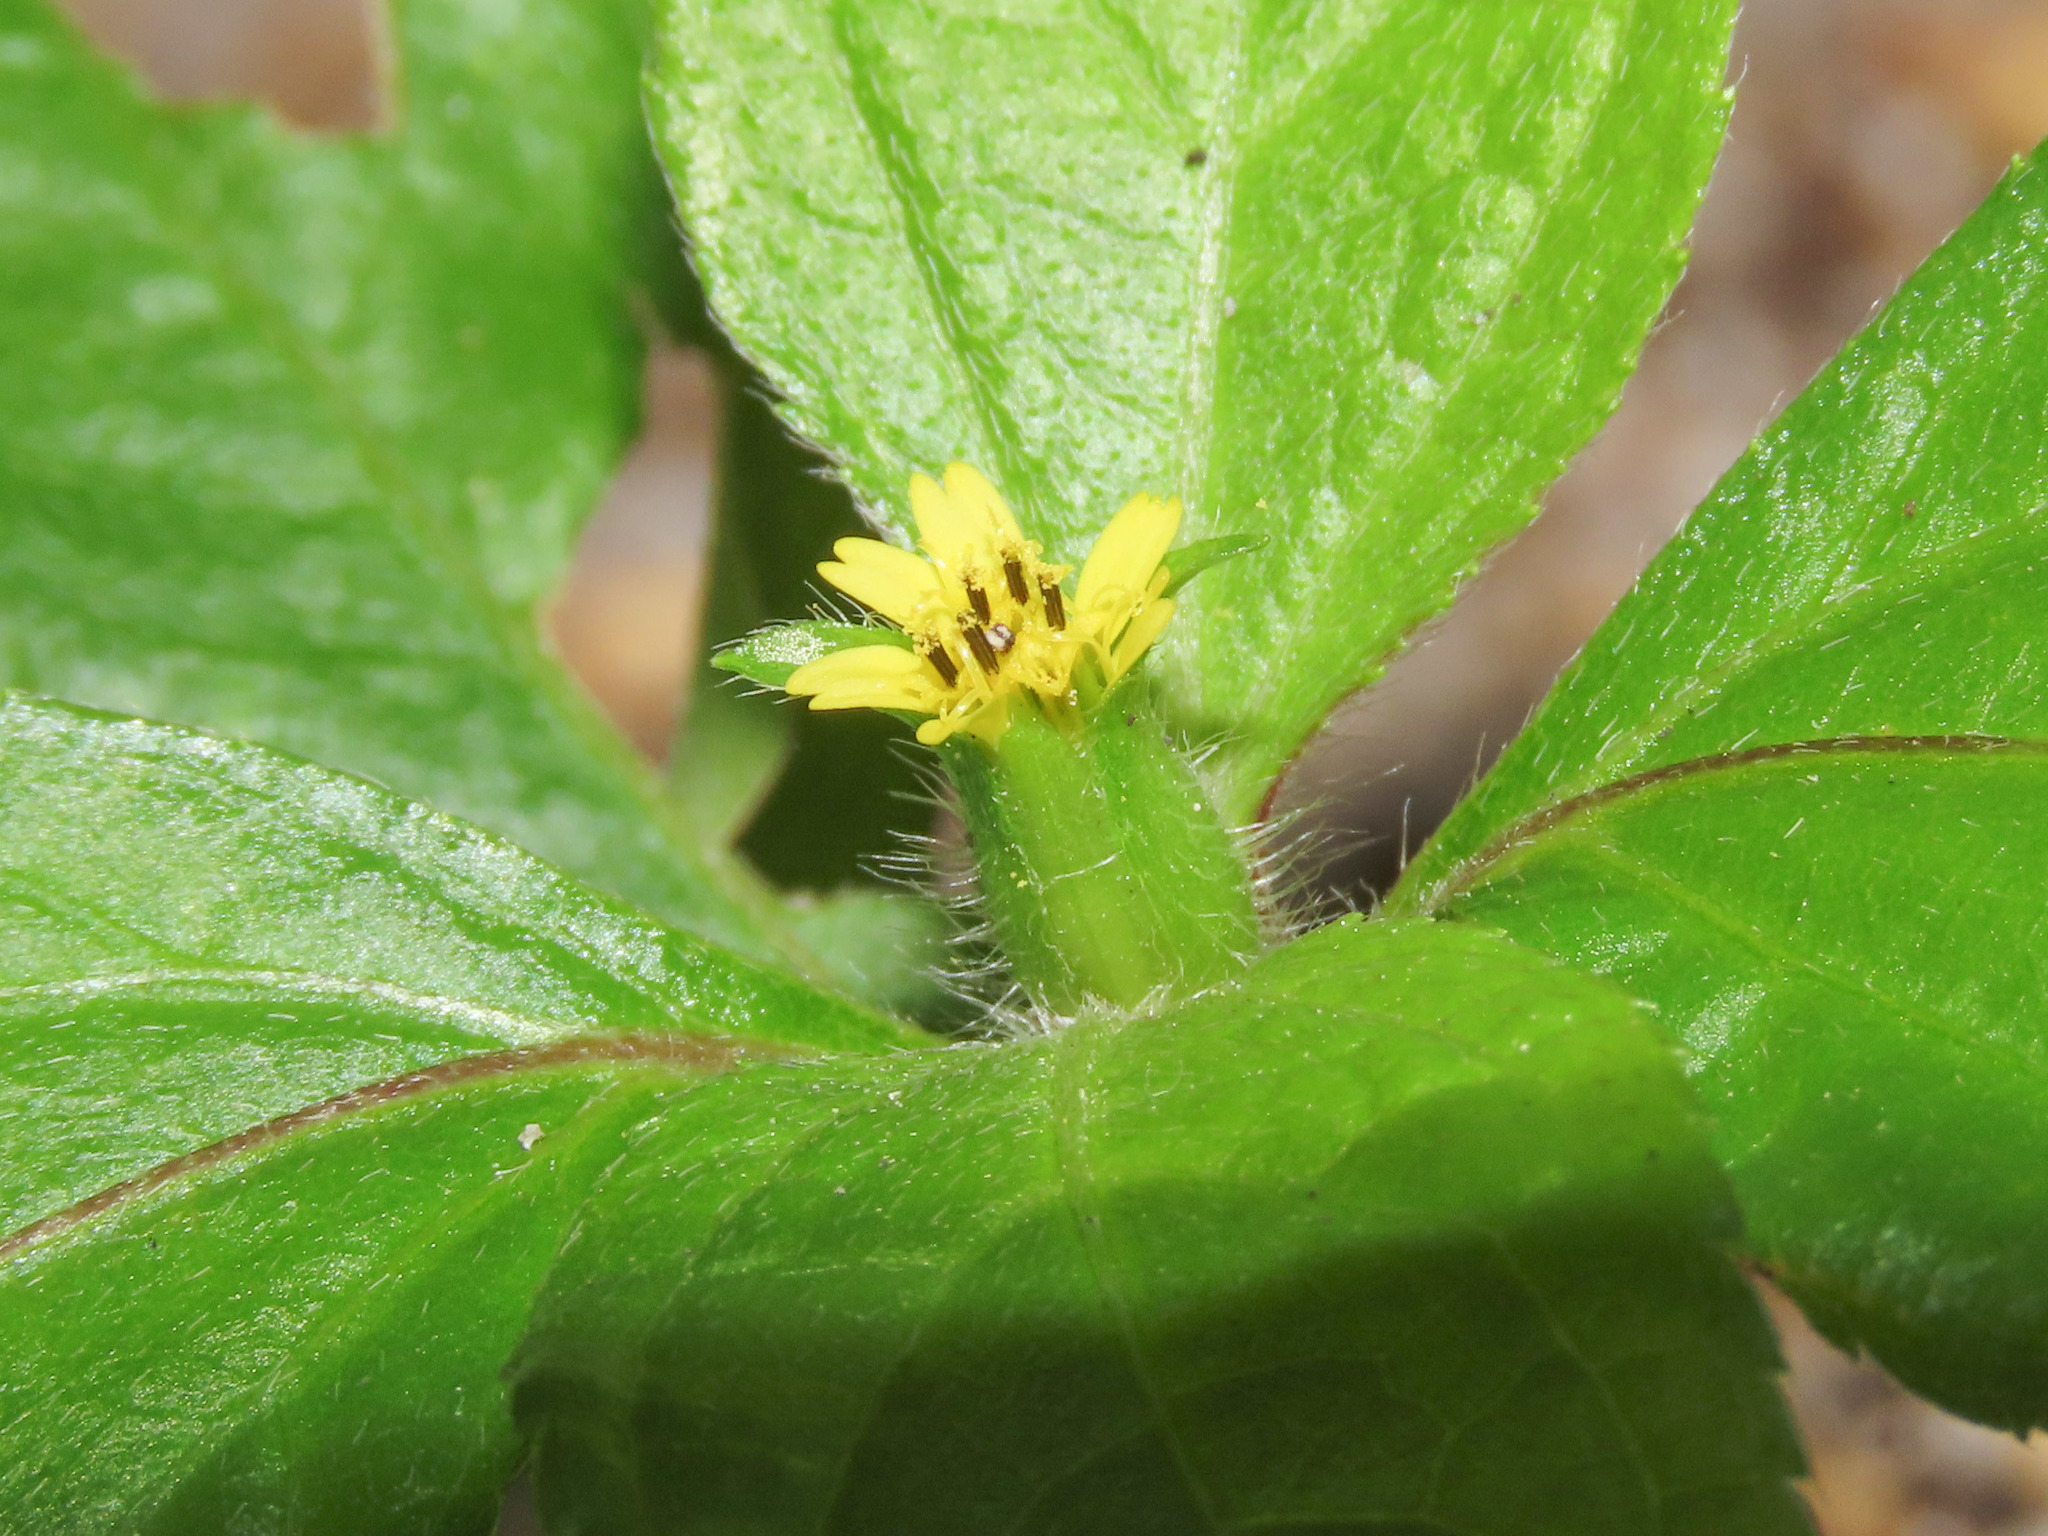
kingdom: Plantae
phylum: Tracheophyta
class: Magnoliopsida
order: Asterales
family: Asteraceae
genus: Synedrella
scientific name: Synedrella nodiflora
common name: Nodeweed
